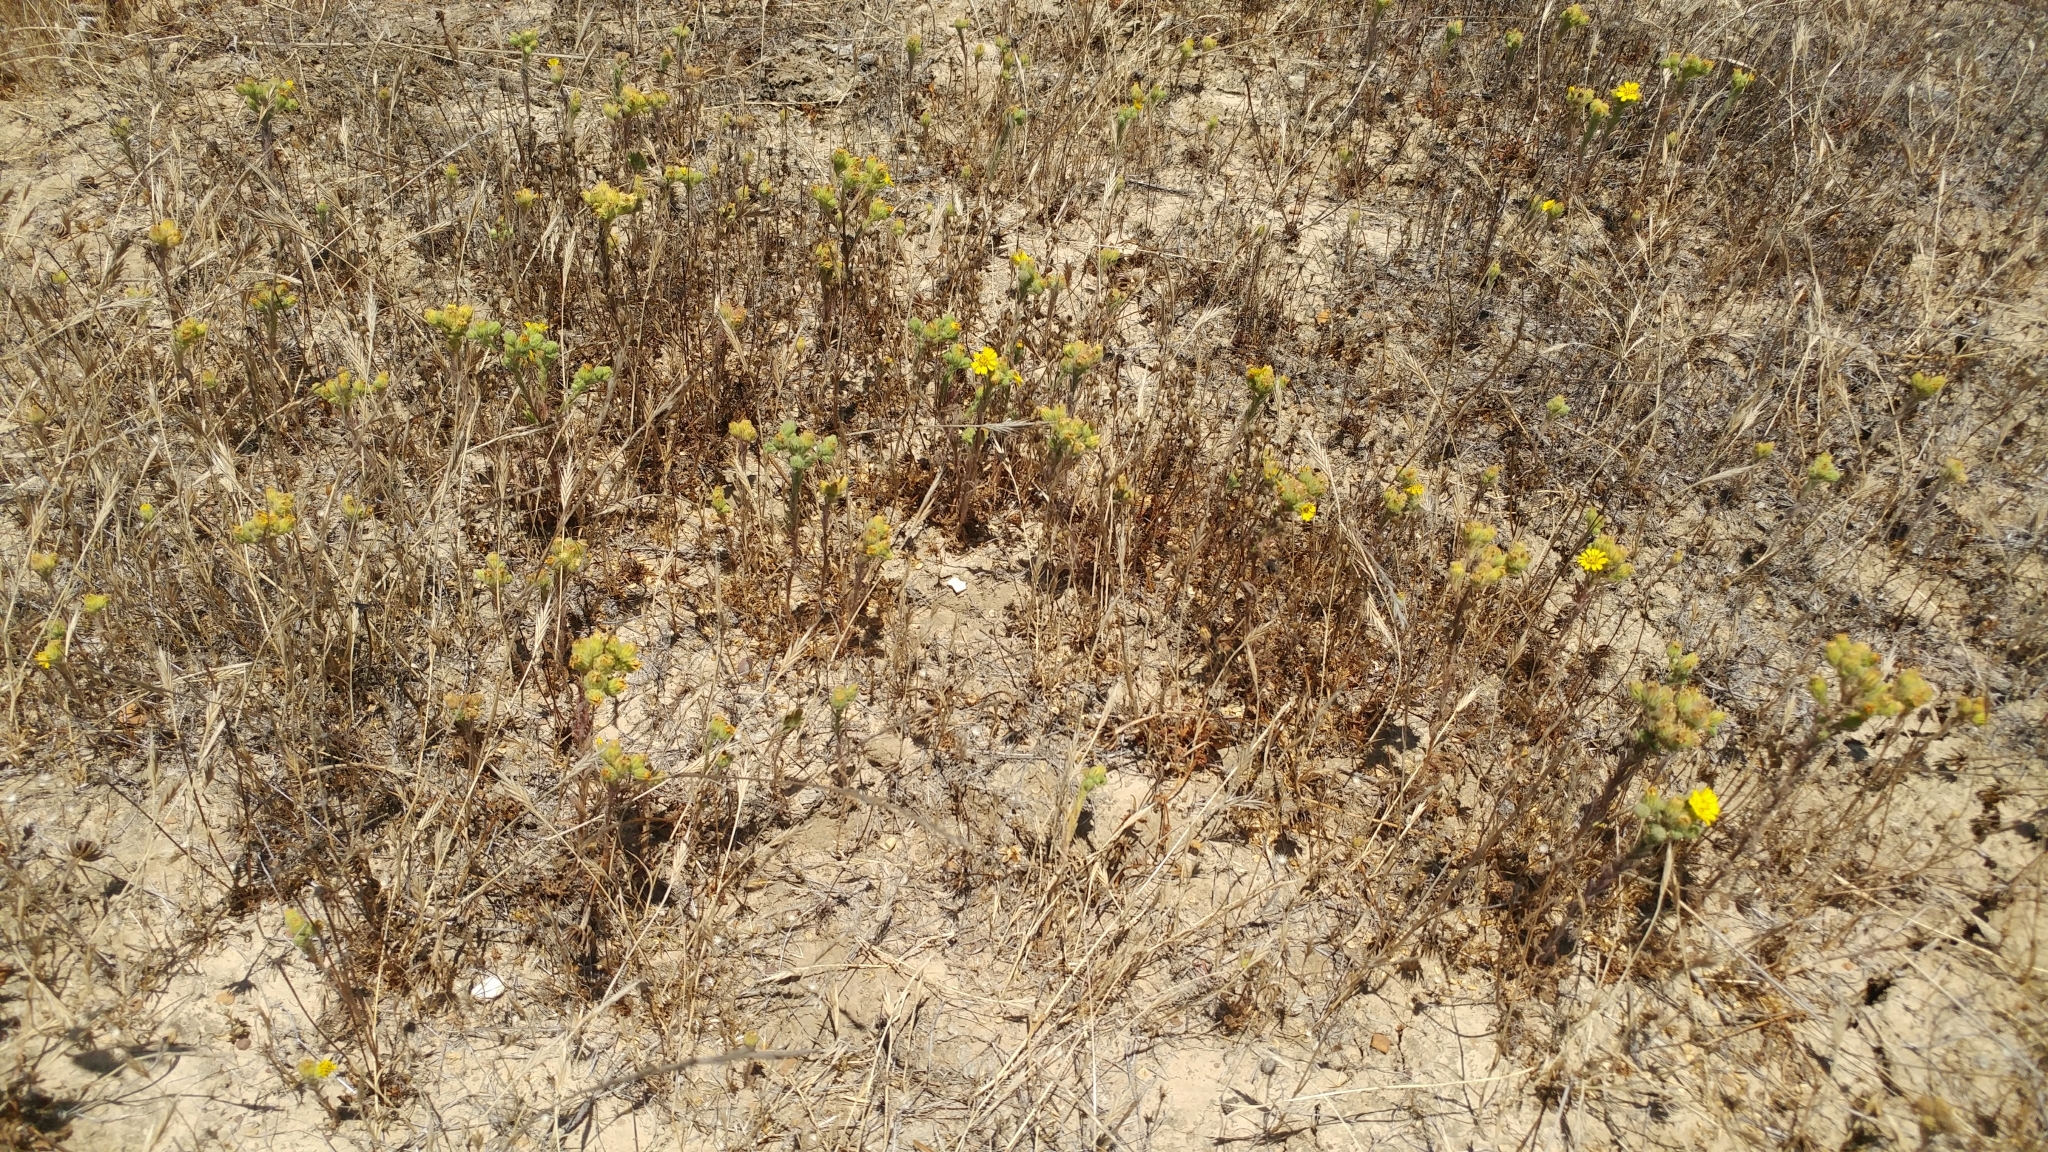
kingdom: Plantae
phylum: Tracheophyta
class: Magnoliopsida
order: Asterales
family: Asteraceae
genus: Deinandra
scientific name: Deinandra increscens
